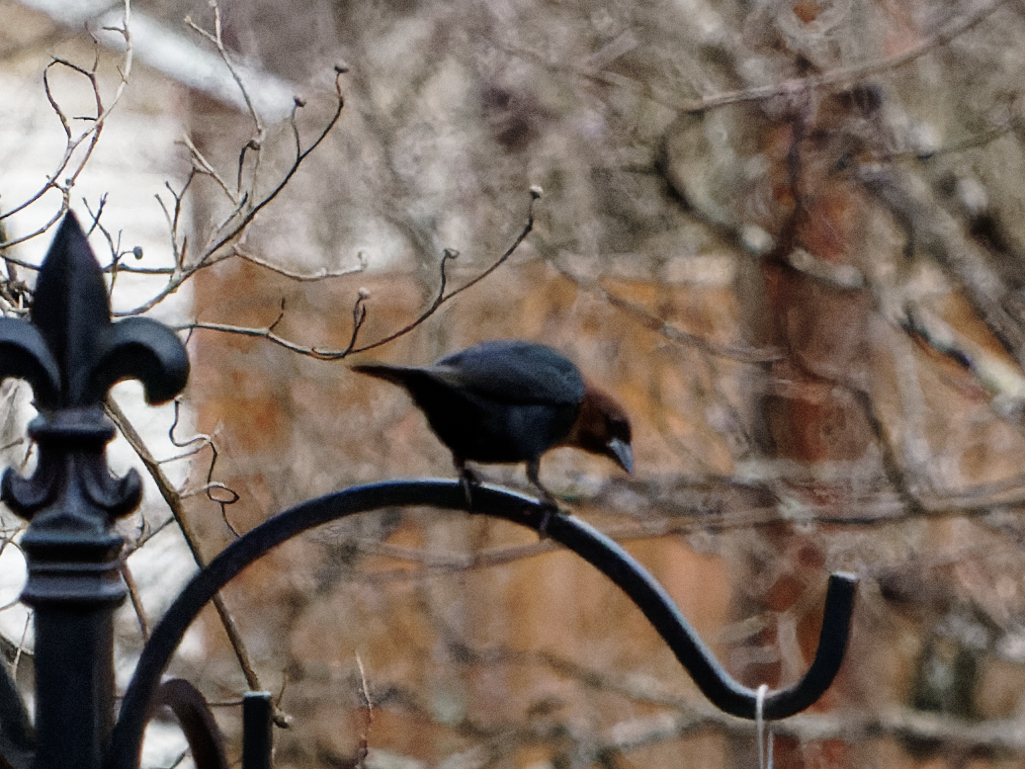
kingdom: Animalia
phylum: Chordata
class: Aves
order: Passeriformes
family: Icteridae
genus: Molothrus
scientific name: Molothrus ater
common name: Brown-headed cowbird
